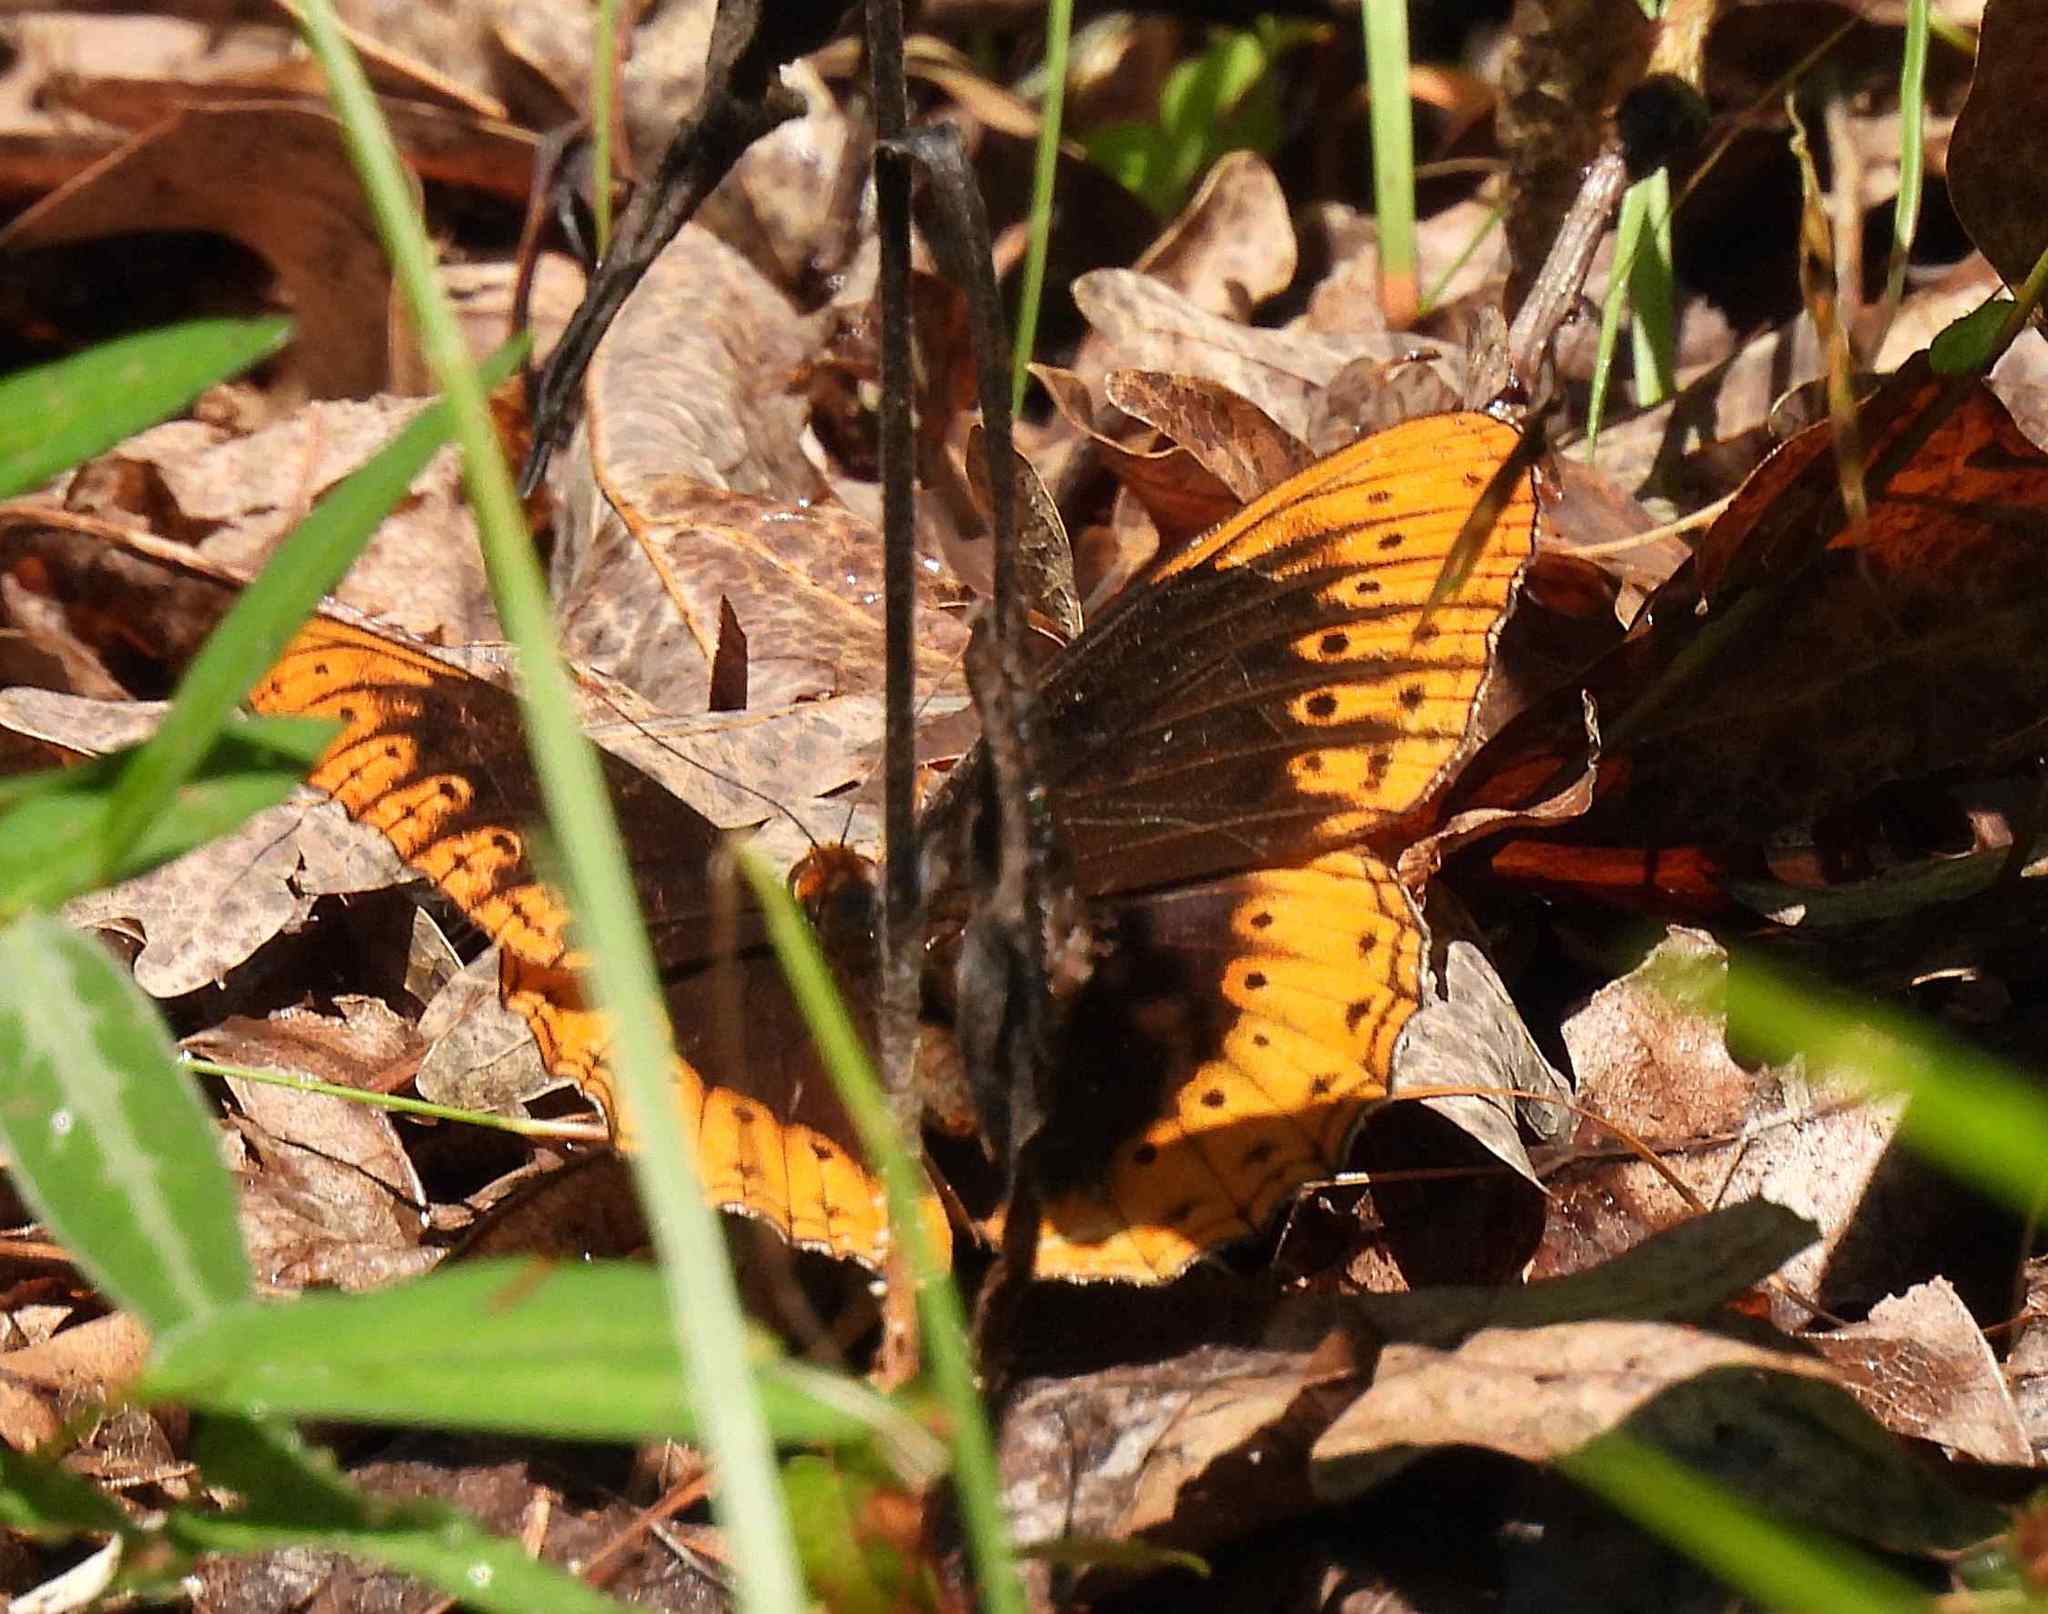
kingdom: Animalia
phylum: Arthropoda
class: Insecta
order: Lepidoptera
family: Nymphalidae
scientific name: Nymphalidae
